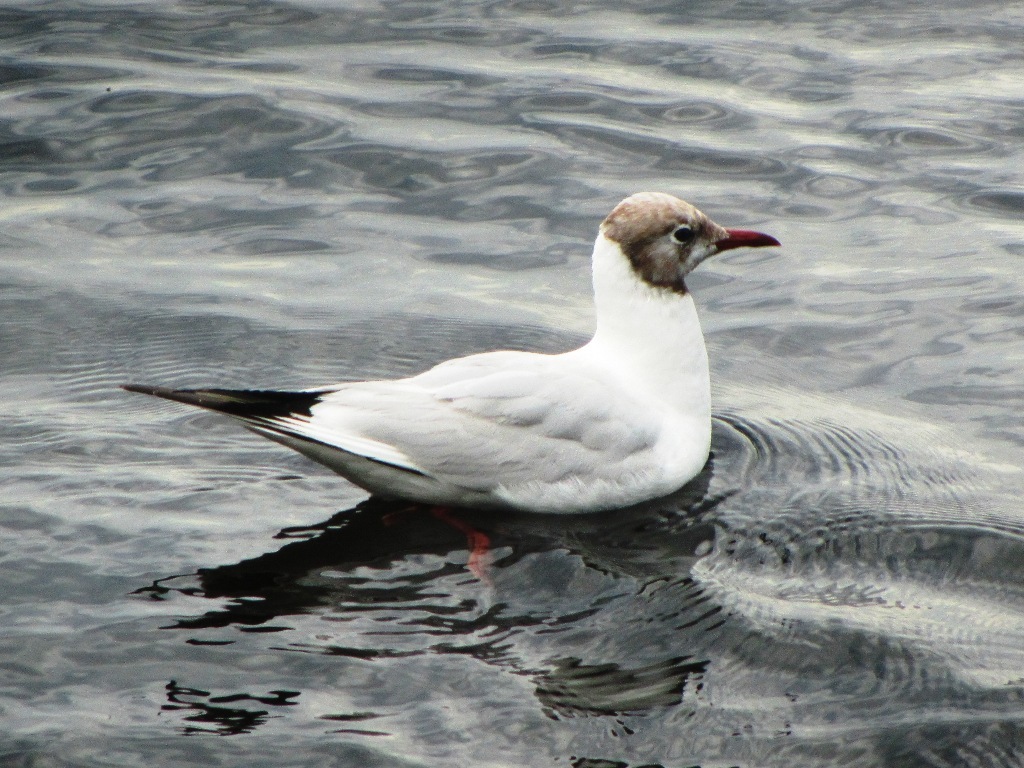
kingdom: Animalia
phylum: Chordata
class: Aves
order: Charadriiformes
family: Laridae
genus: Chroicocephalus
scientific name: Chroicocephalus ridibundus
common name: Black-headed gull
